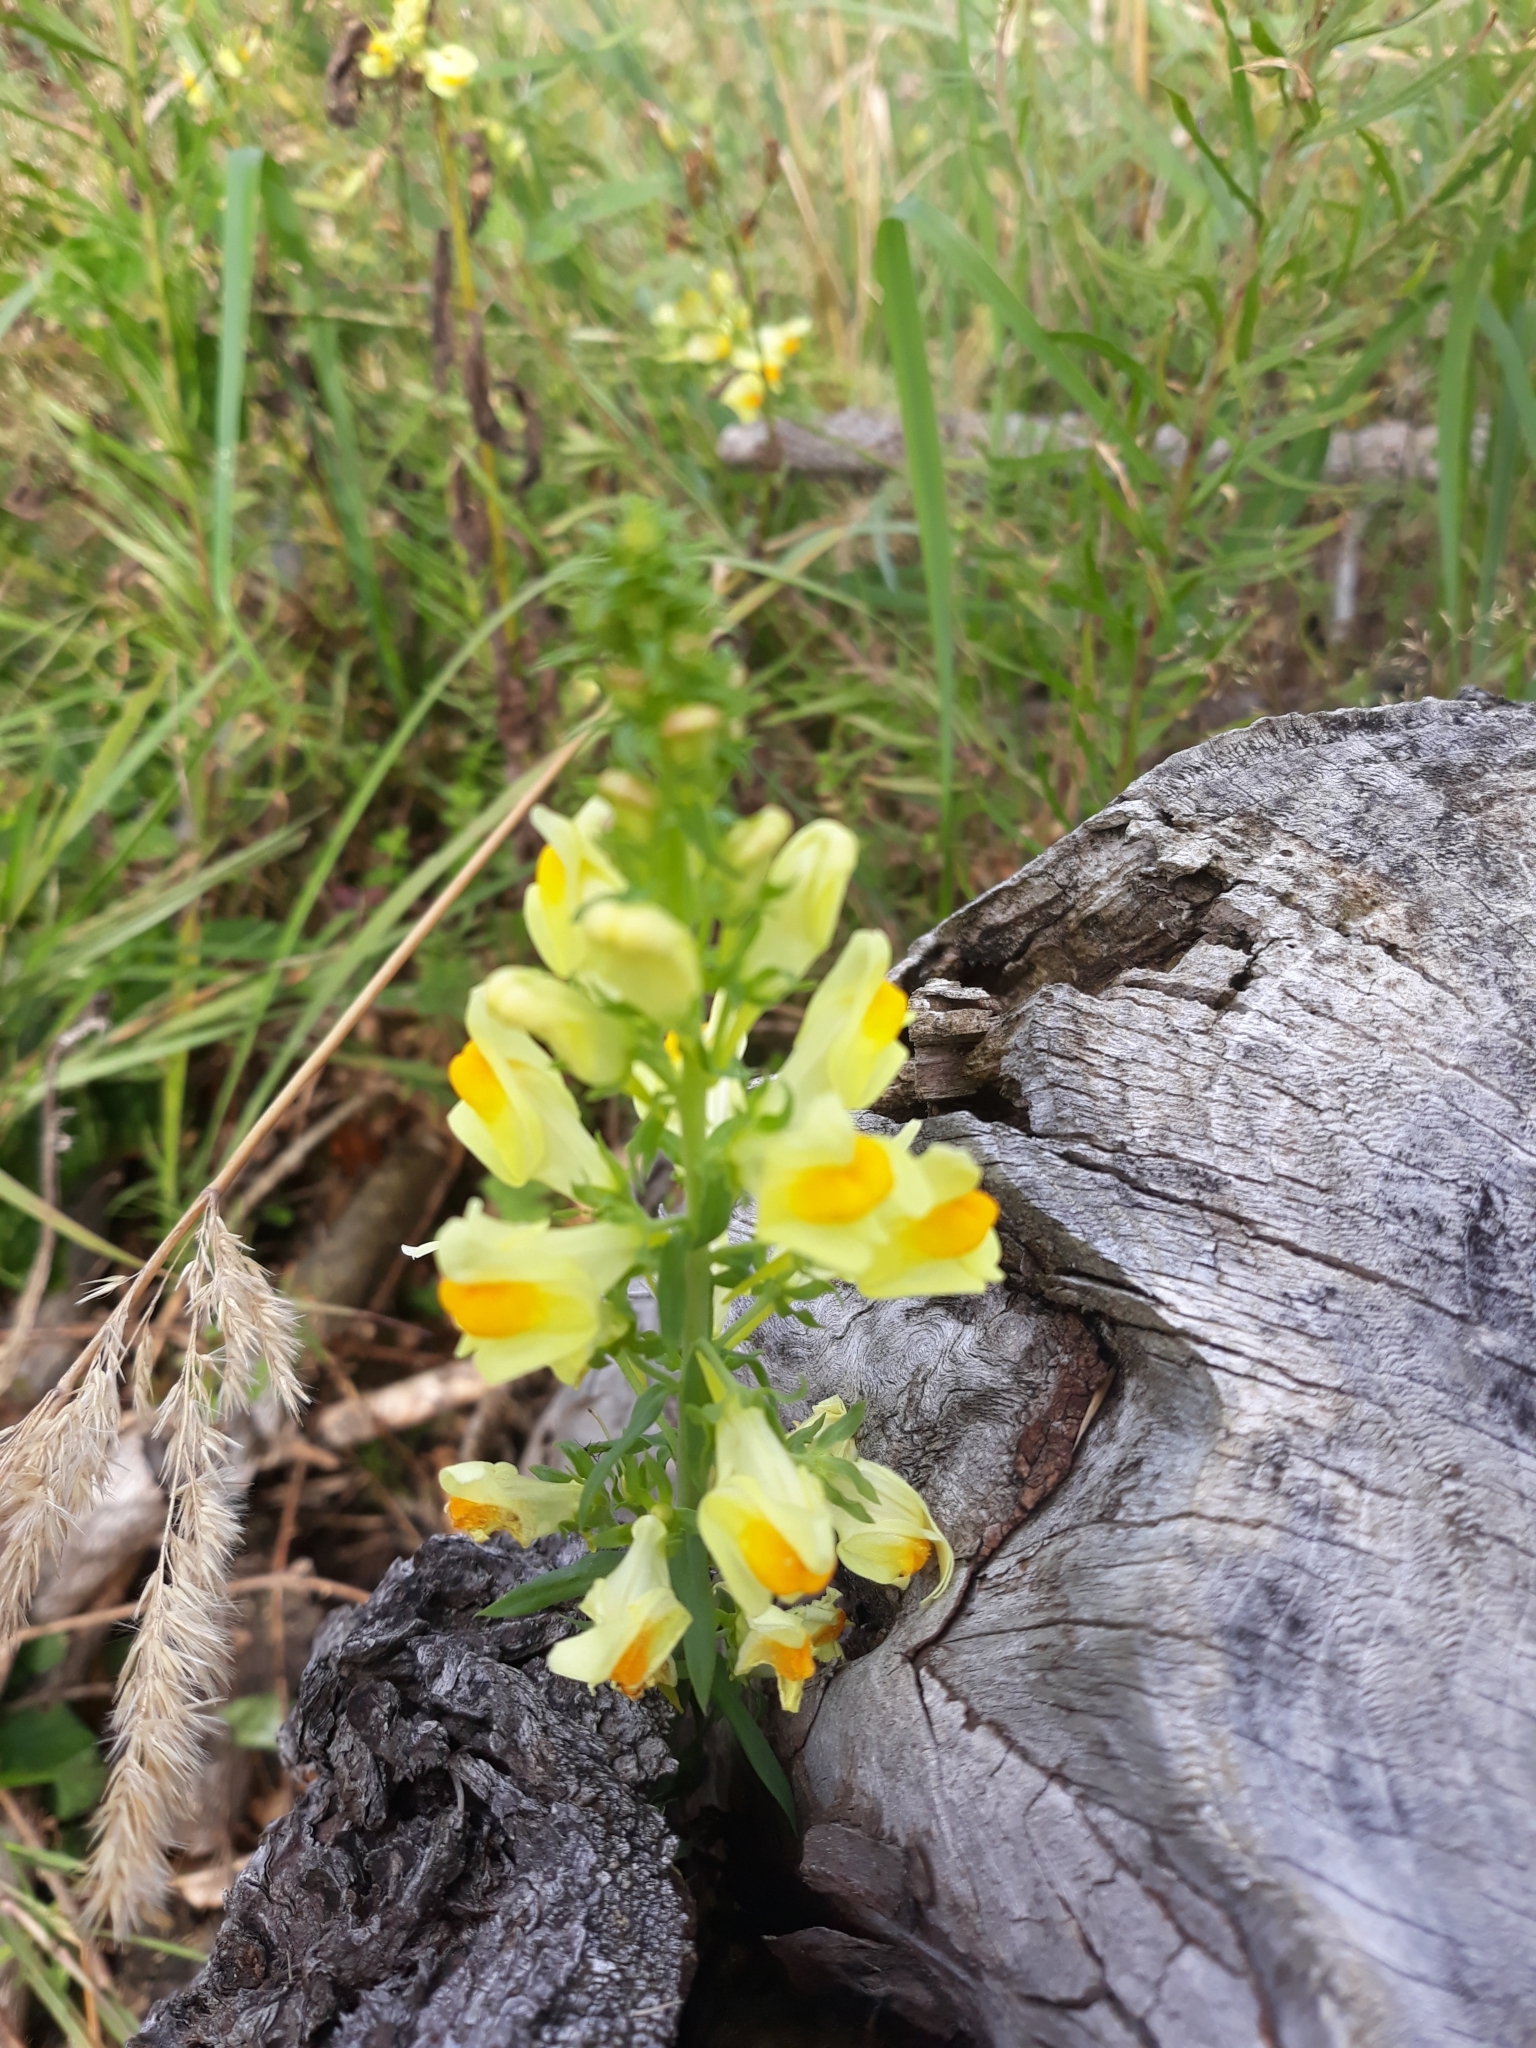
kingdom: Plantae
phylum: Tracheophyta
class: Magnoliopsida
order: Lamiales
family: Plantaginaceae
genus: Linaria
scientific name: Linaria vulgaris
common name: Butter and eggs
